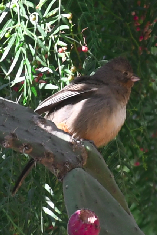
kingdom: Animalia
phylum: Chordata
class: Aves
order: Passeriformes
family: Passerellidae
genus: Melozone
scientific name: Melozone fusca
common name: Canyon towhee
